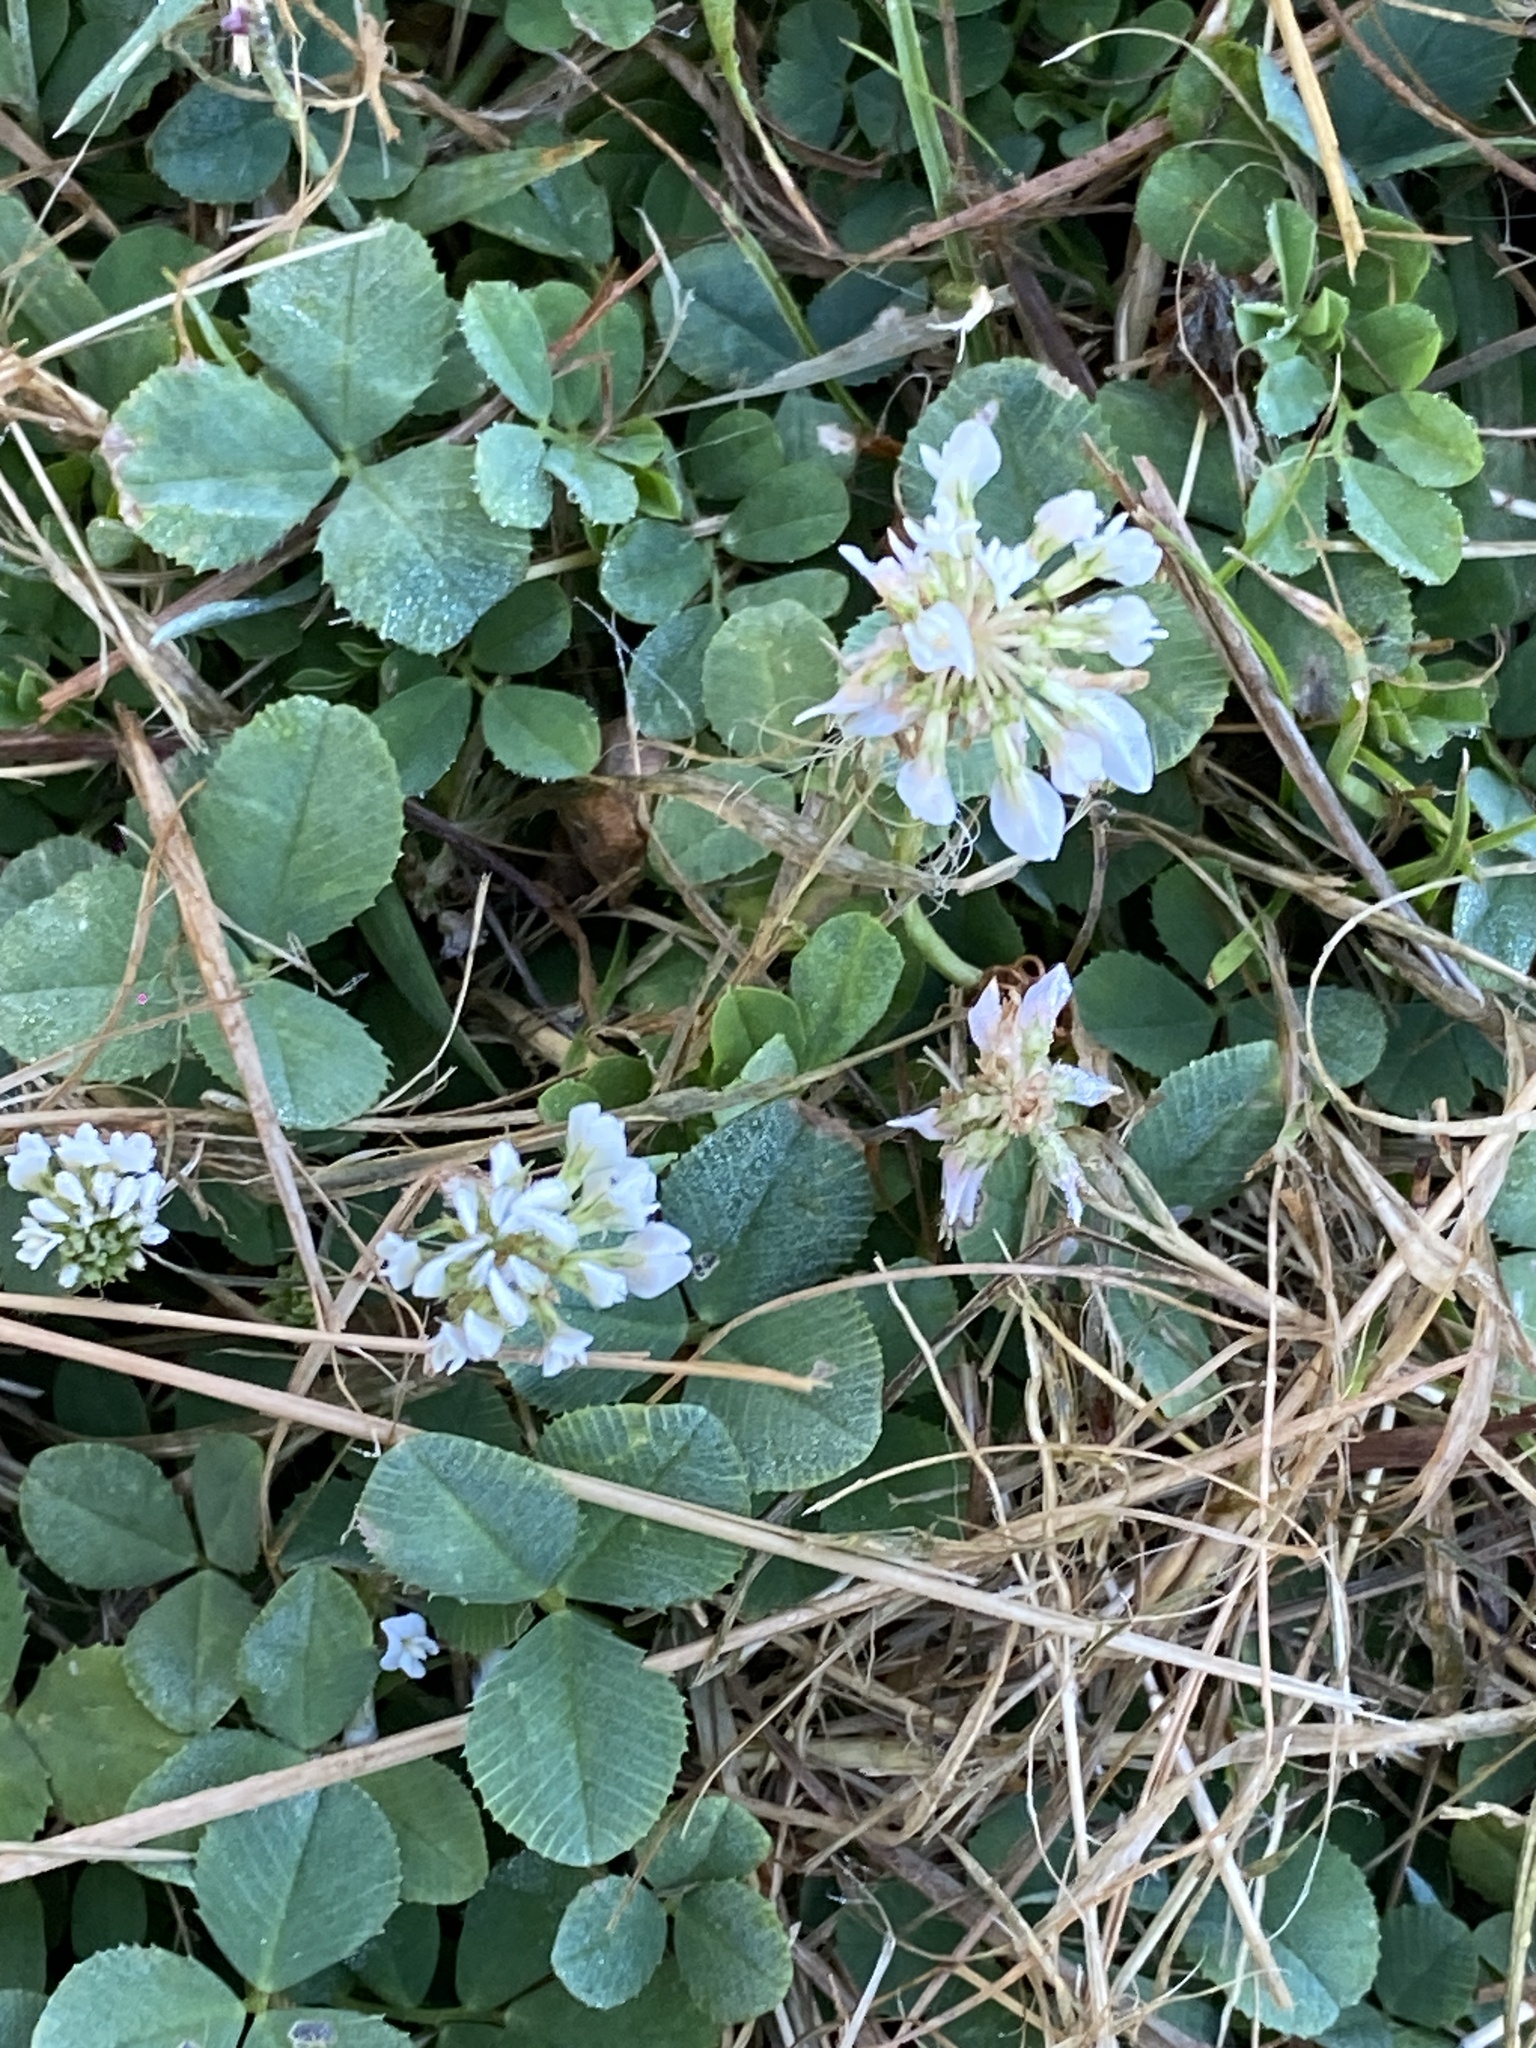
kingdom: Plantae
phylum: Tracheophyta
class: Magnoliopsida
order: Fabales
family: Fabaceae
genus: Trifolium
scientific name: Trifolium repens
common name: White clover
